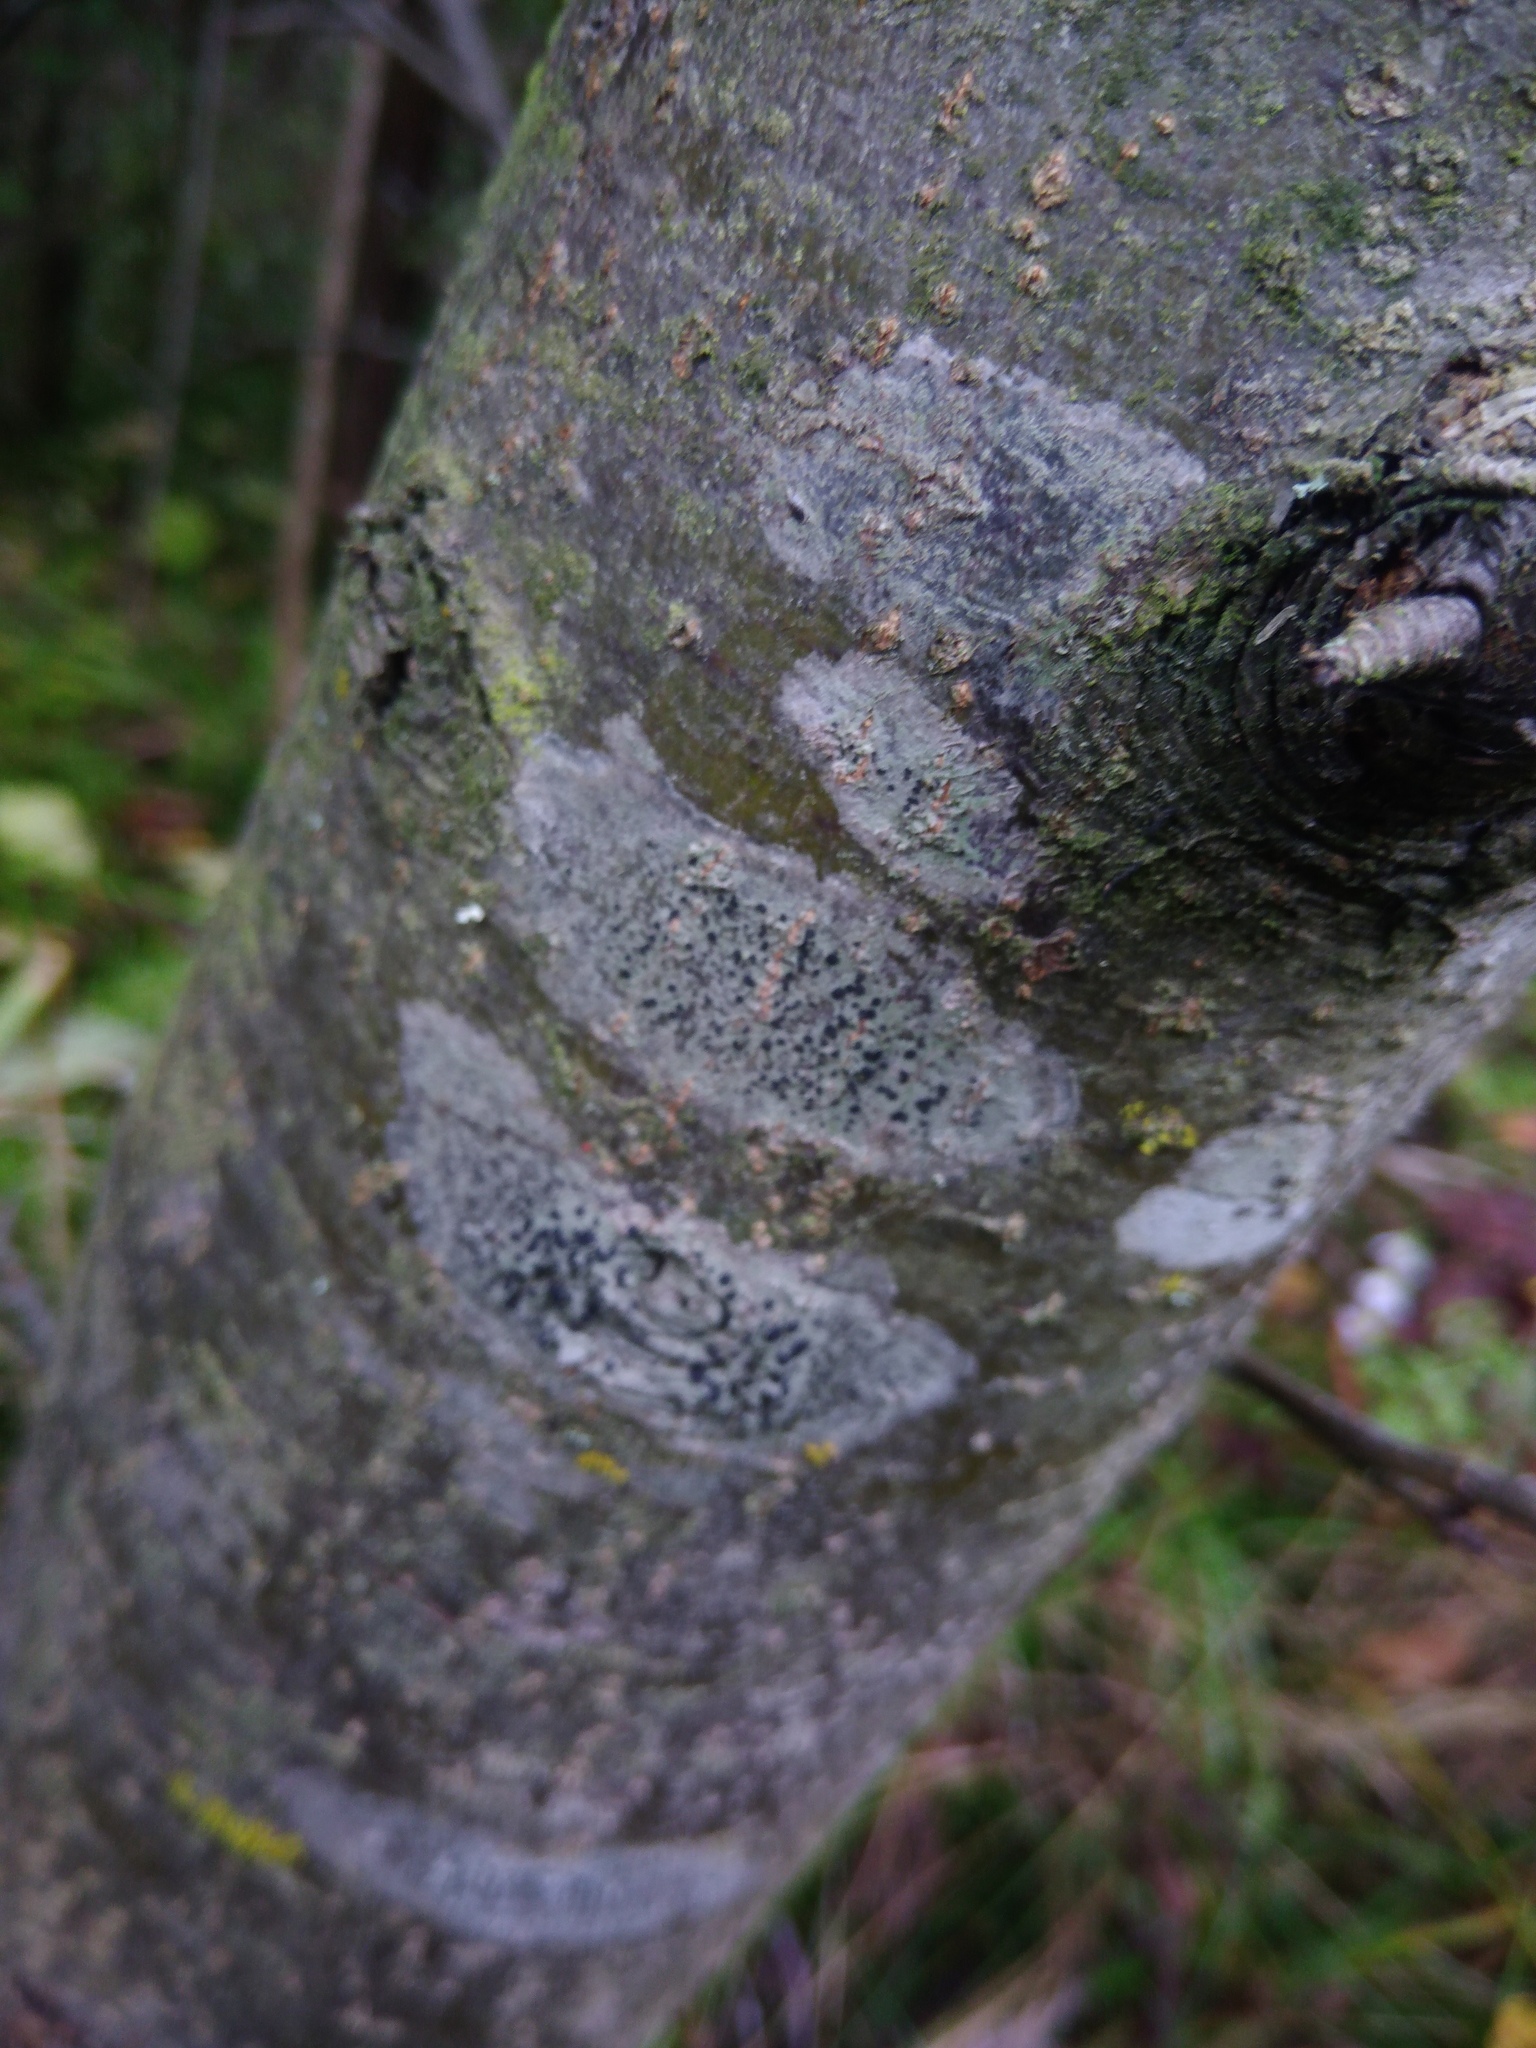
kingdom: Fungi
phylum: Ascomycota
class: Lecanoromycetes
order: Lecanorales
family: Lecanoraceae
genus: Lecidella
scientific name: Lecidella elaeochroma
